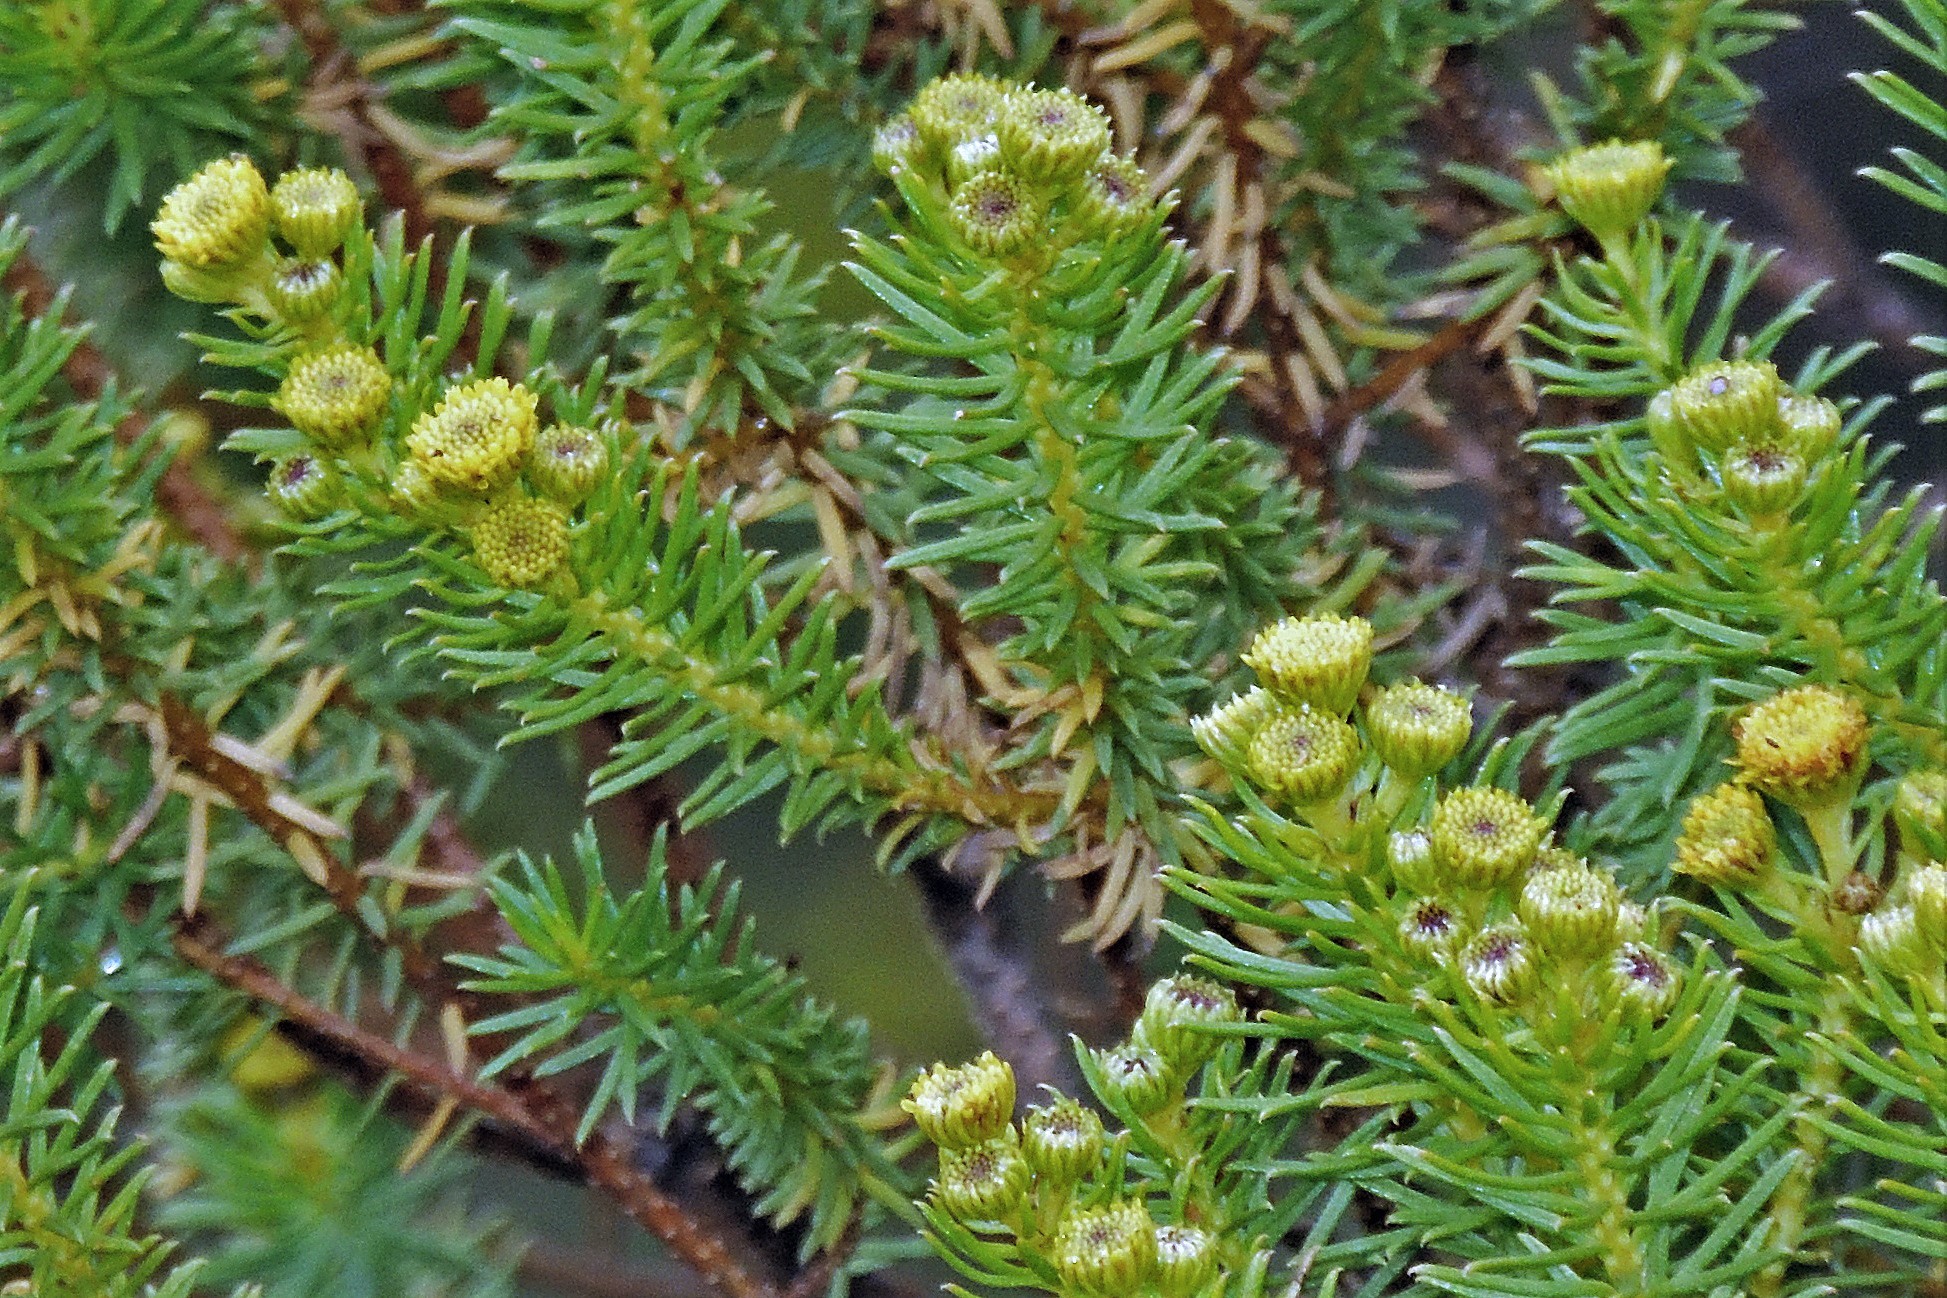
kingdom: Plantae
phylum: Tracheophyta
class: Magnoliopsida
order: Asterales
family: Asteraceae
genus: Baccharis
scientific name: Baccharis aliena
